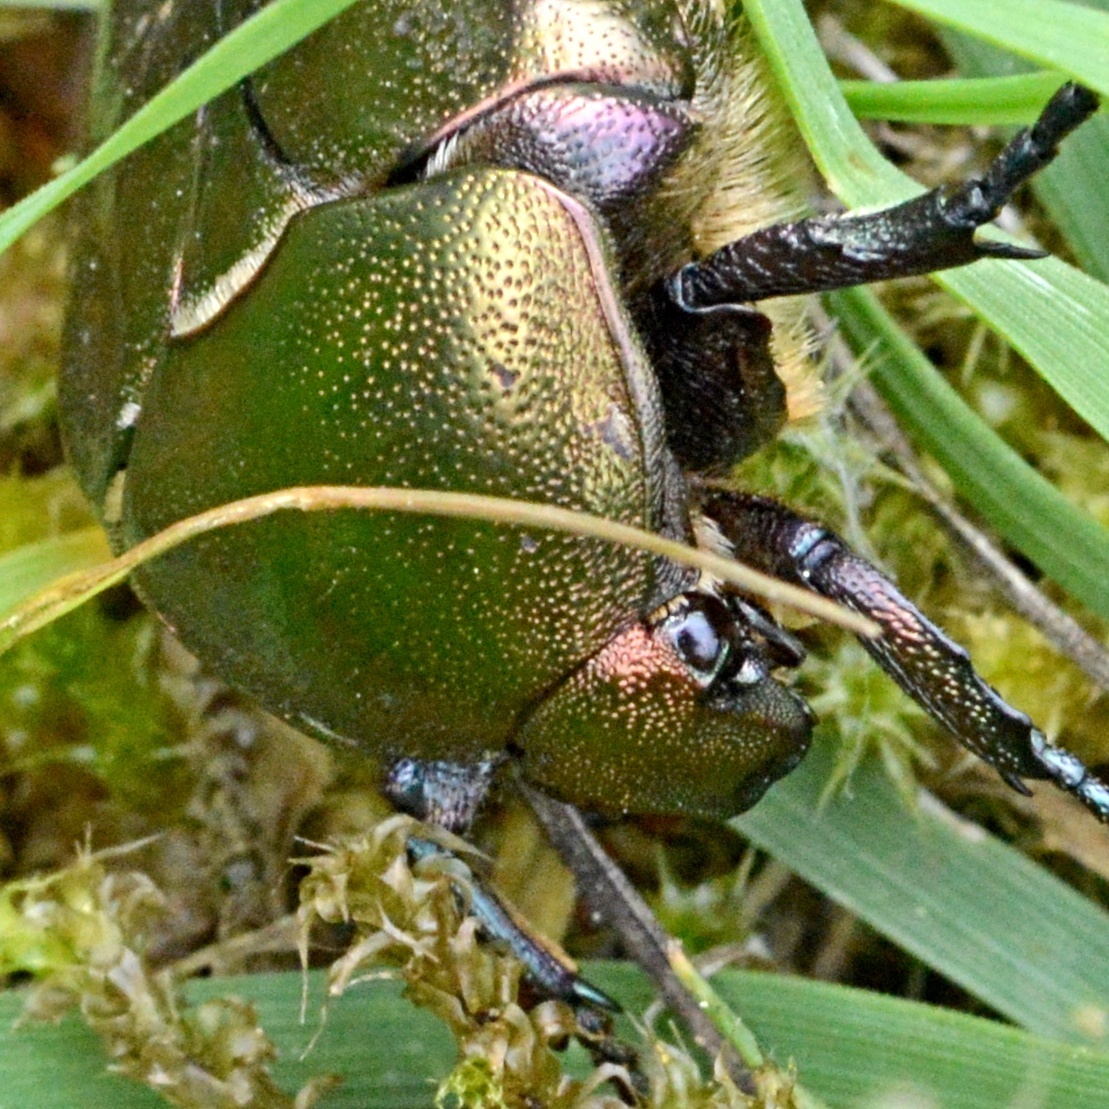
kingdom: Animalia
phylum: Arthropoda
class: Insecta
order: Coleoptera
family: Scarabaeidae
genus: Protaetia
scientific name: Protaetia cuprea
